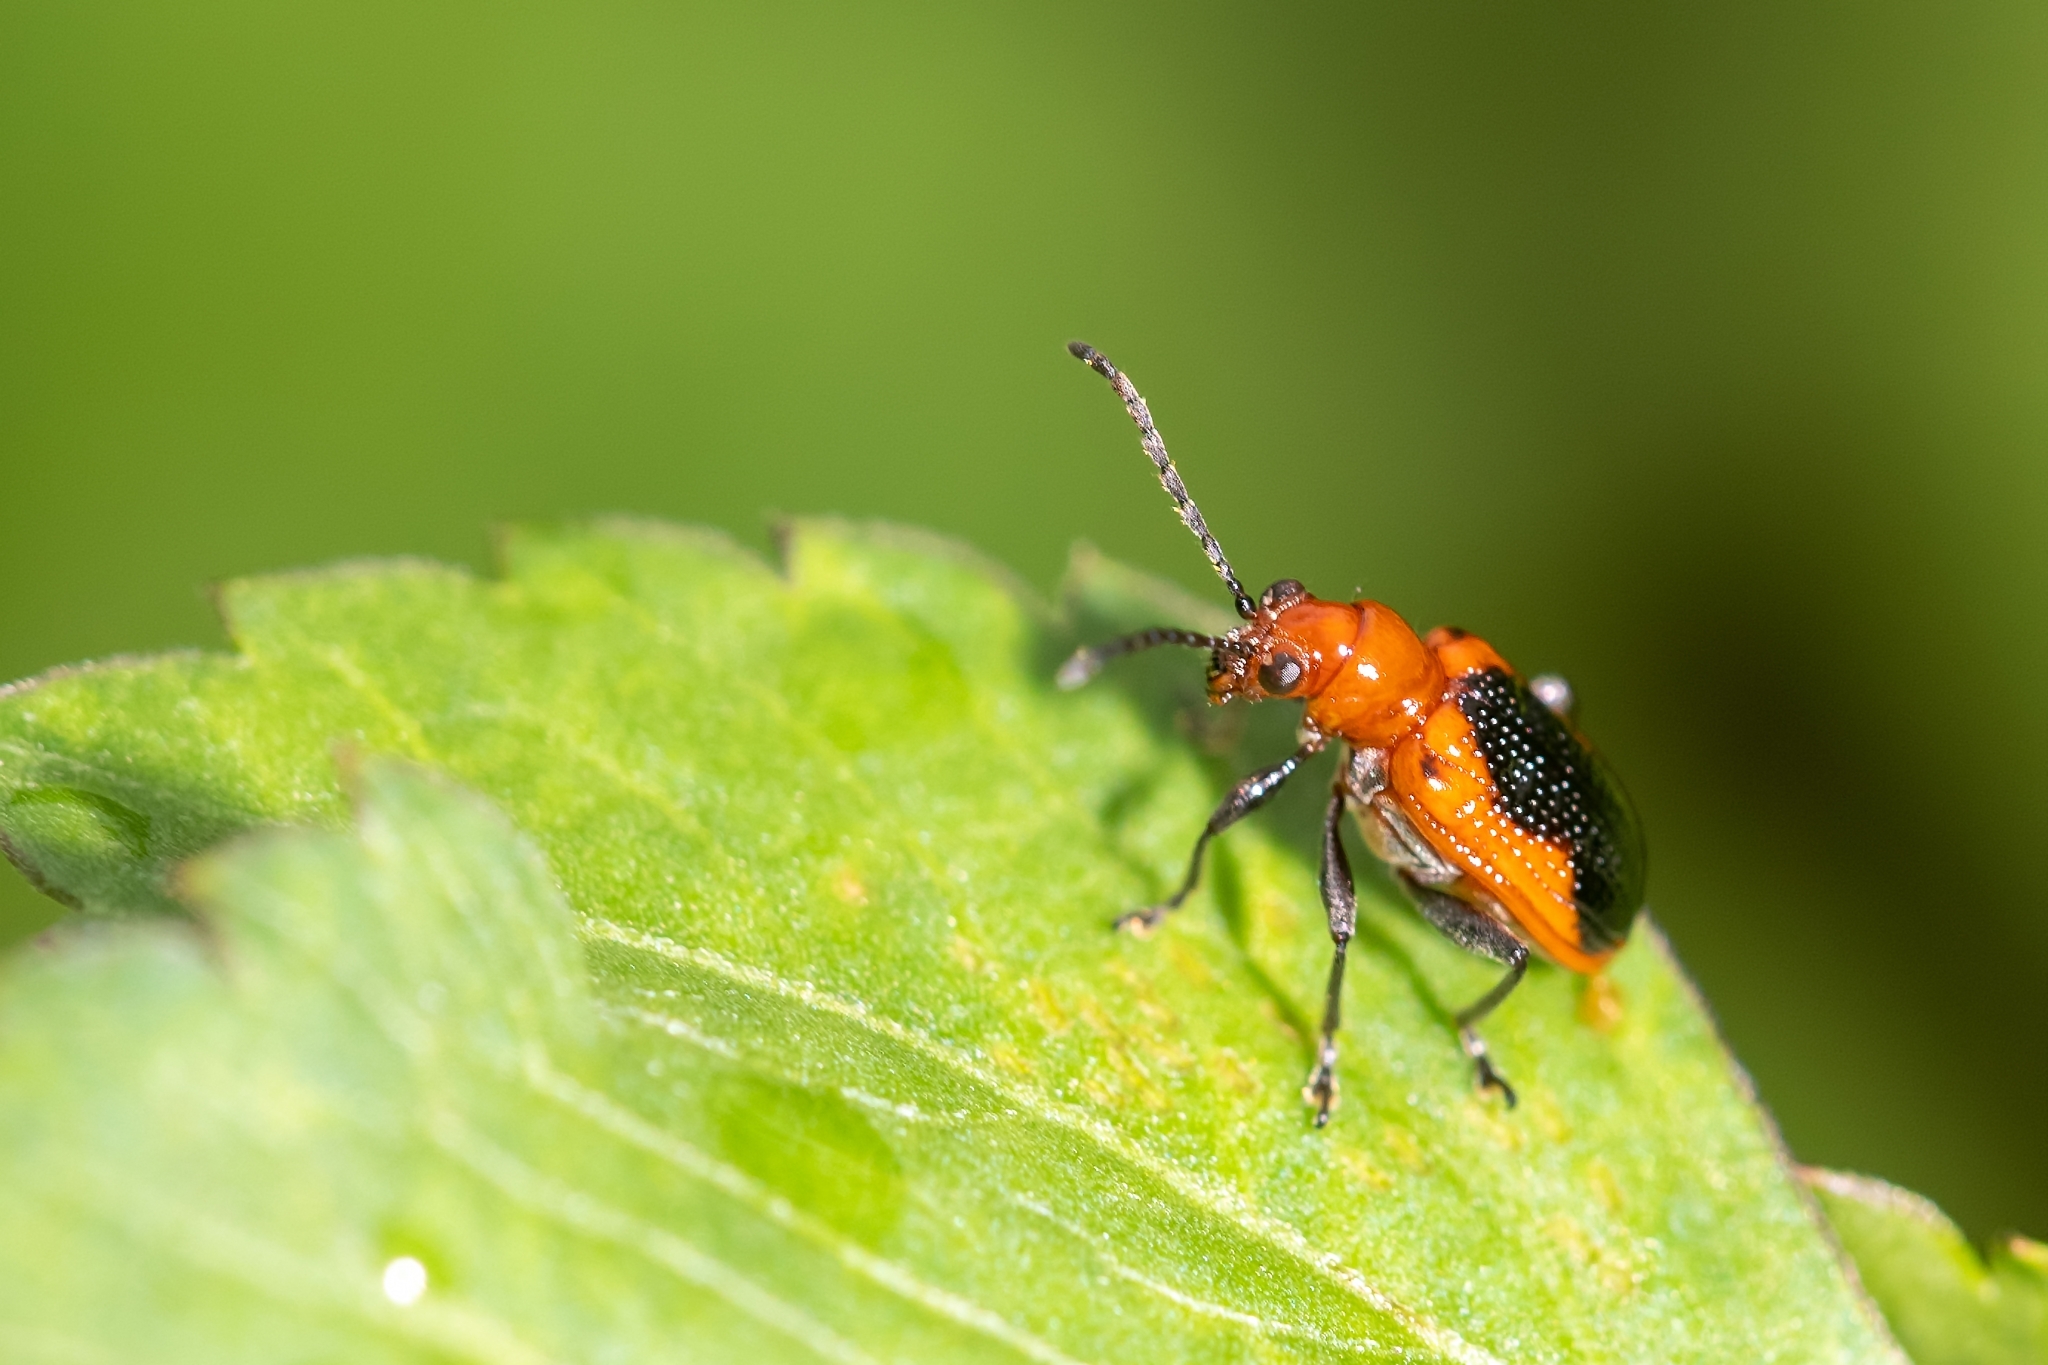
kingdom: Animalia
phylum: Arthropoda
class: Insecta
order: Coleoptera
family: Chrysomelidae
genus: Neolema
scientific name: Neolema ephippium
